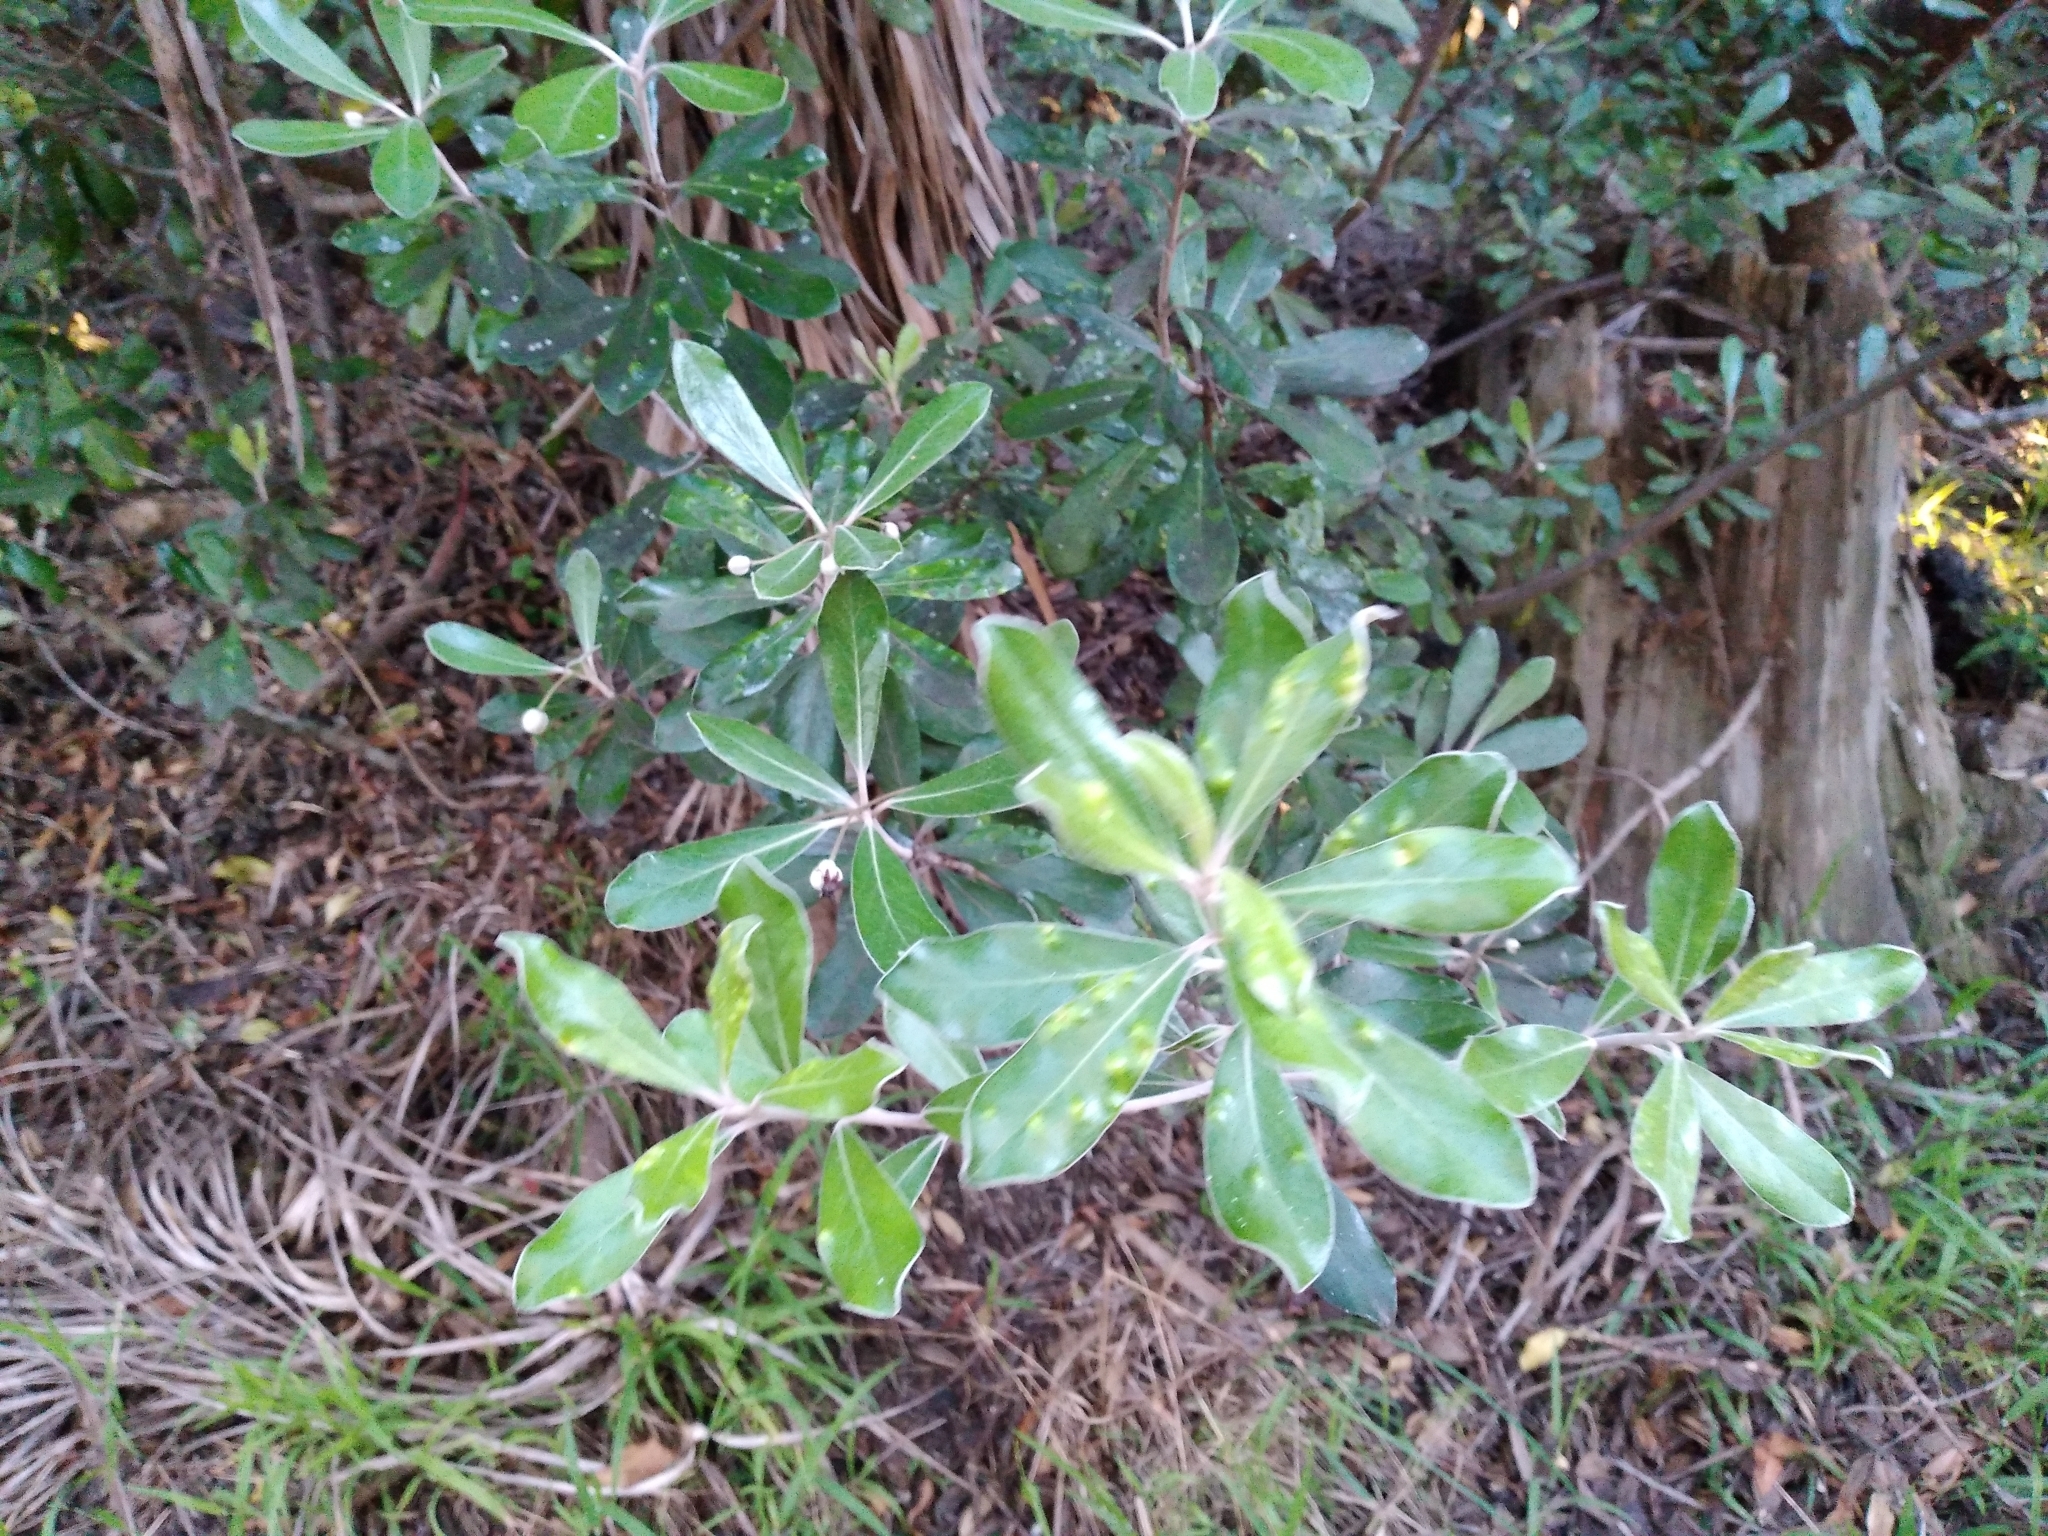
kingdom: Plantae
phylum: Tracheophyta
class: Magnoliopsida
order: Apiales
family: Pittosporaceae
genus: Pittosporum
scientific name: Pittosporum crassifolium
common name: Karo
